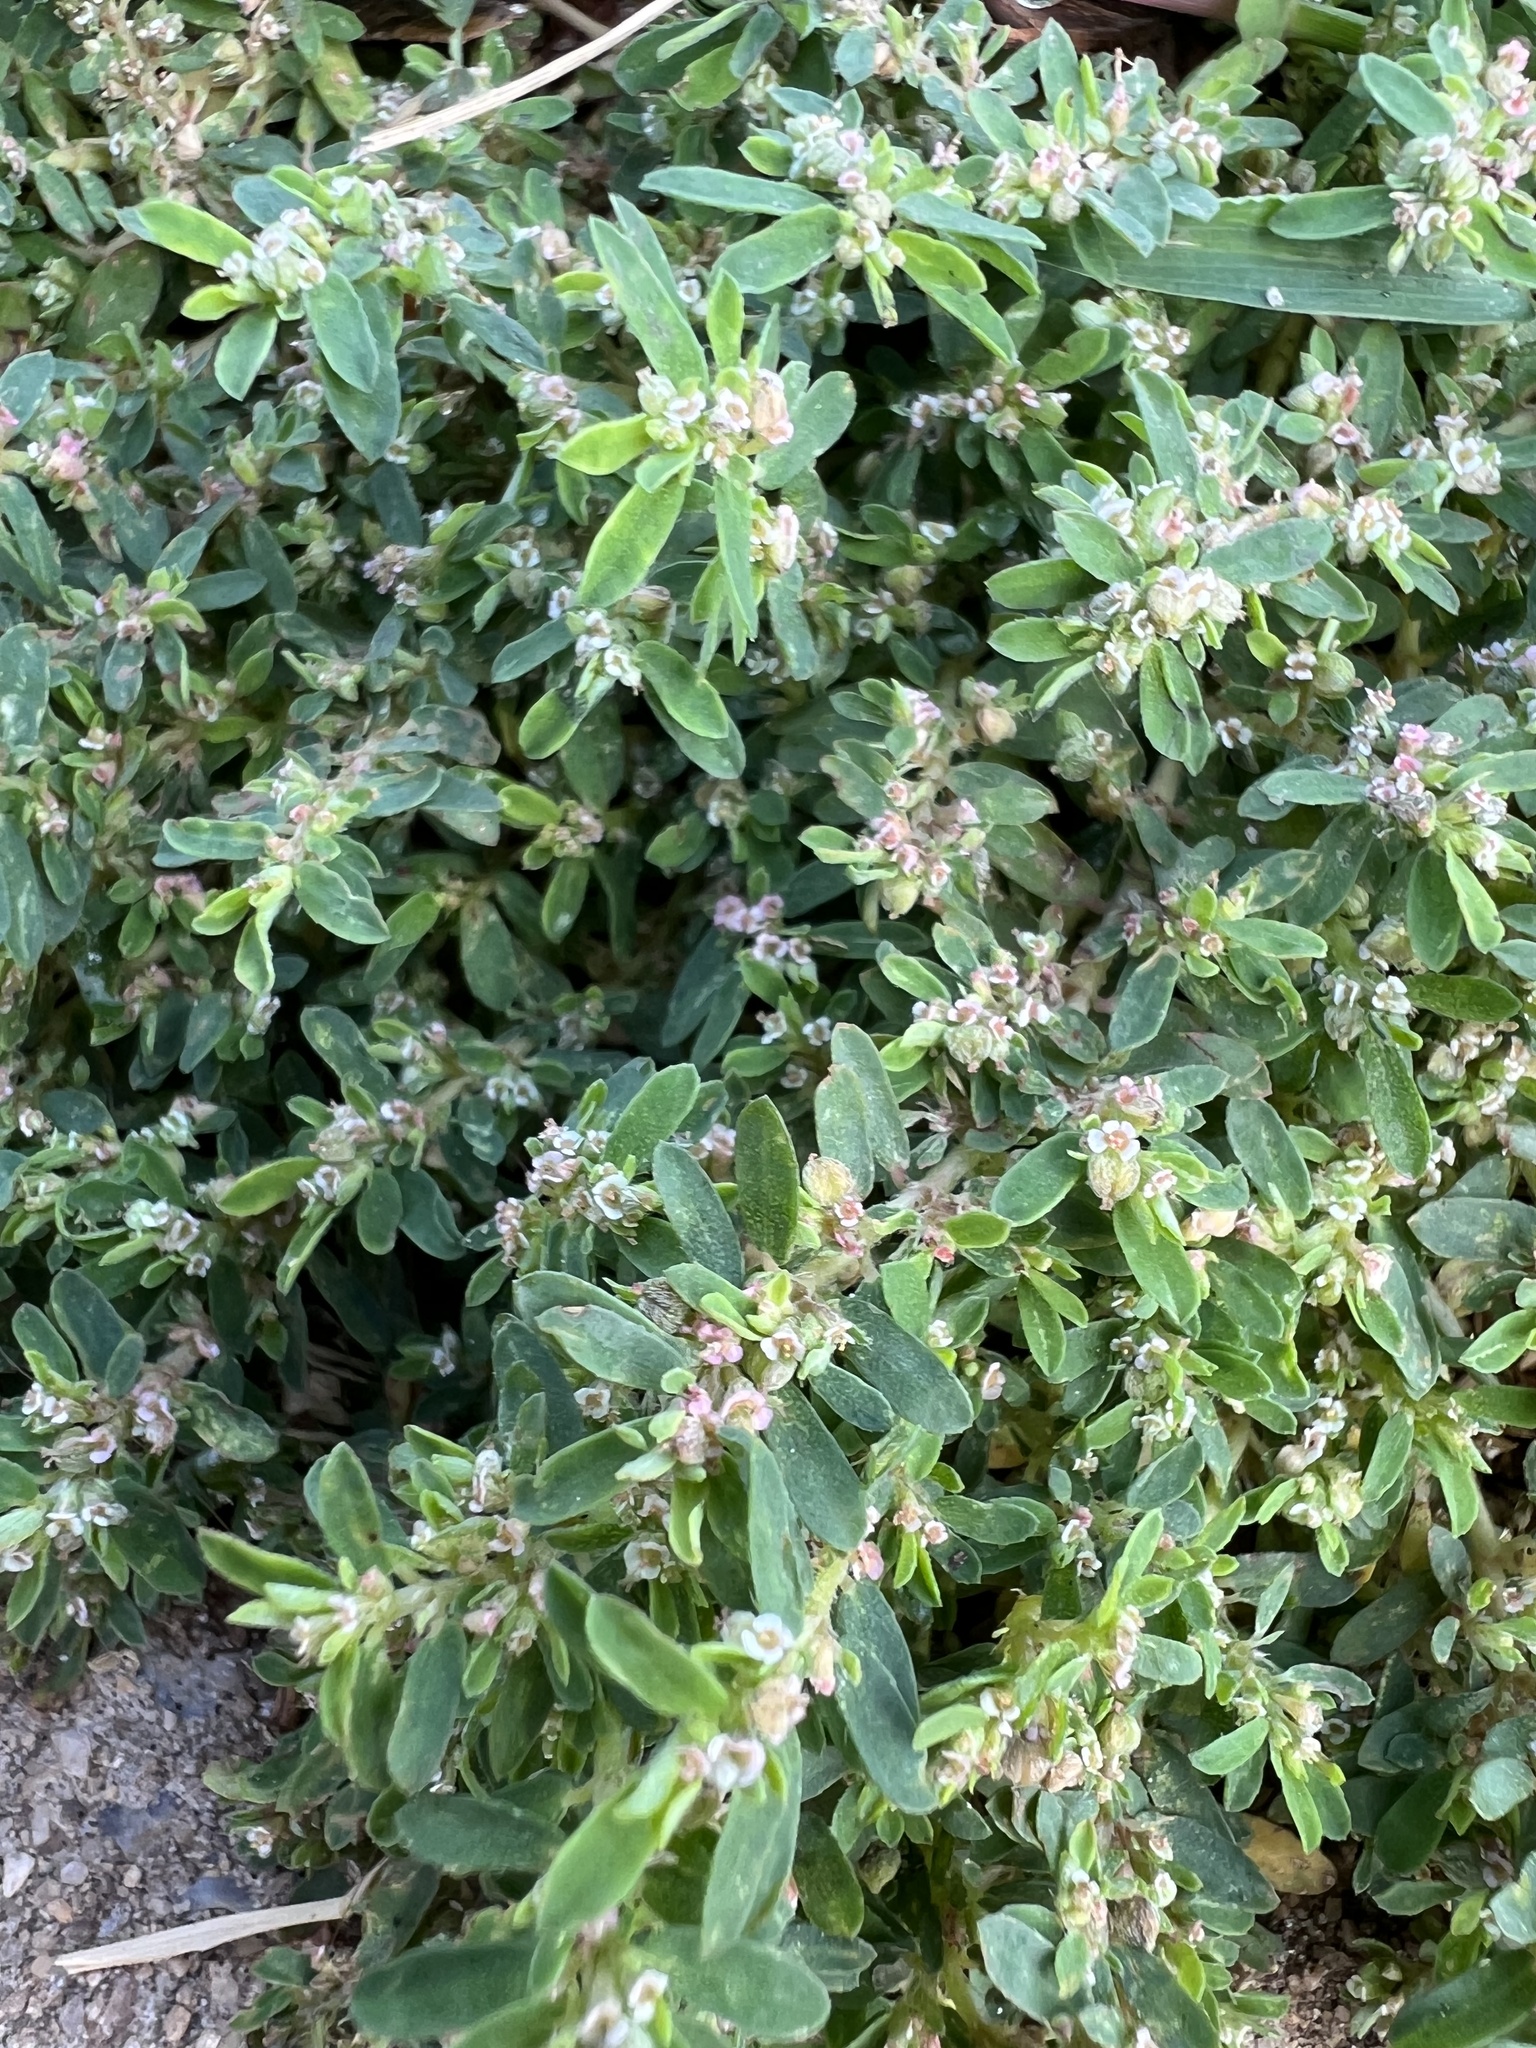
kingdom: Plantae
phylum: Tracheophyta
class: Magnoliopsida
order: Malpighiales
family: Euphorbiaceae
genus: Euphorbia
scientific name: Euphorbia maculata
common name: Spotted spurge
